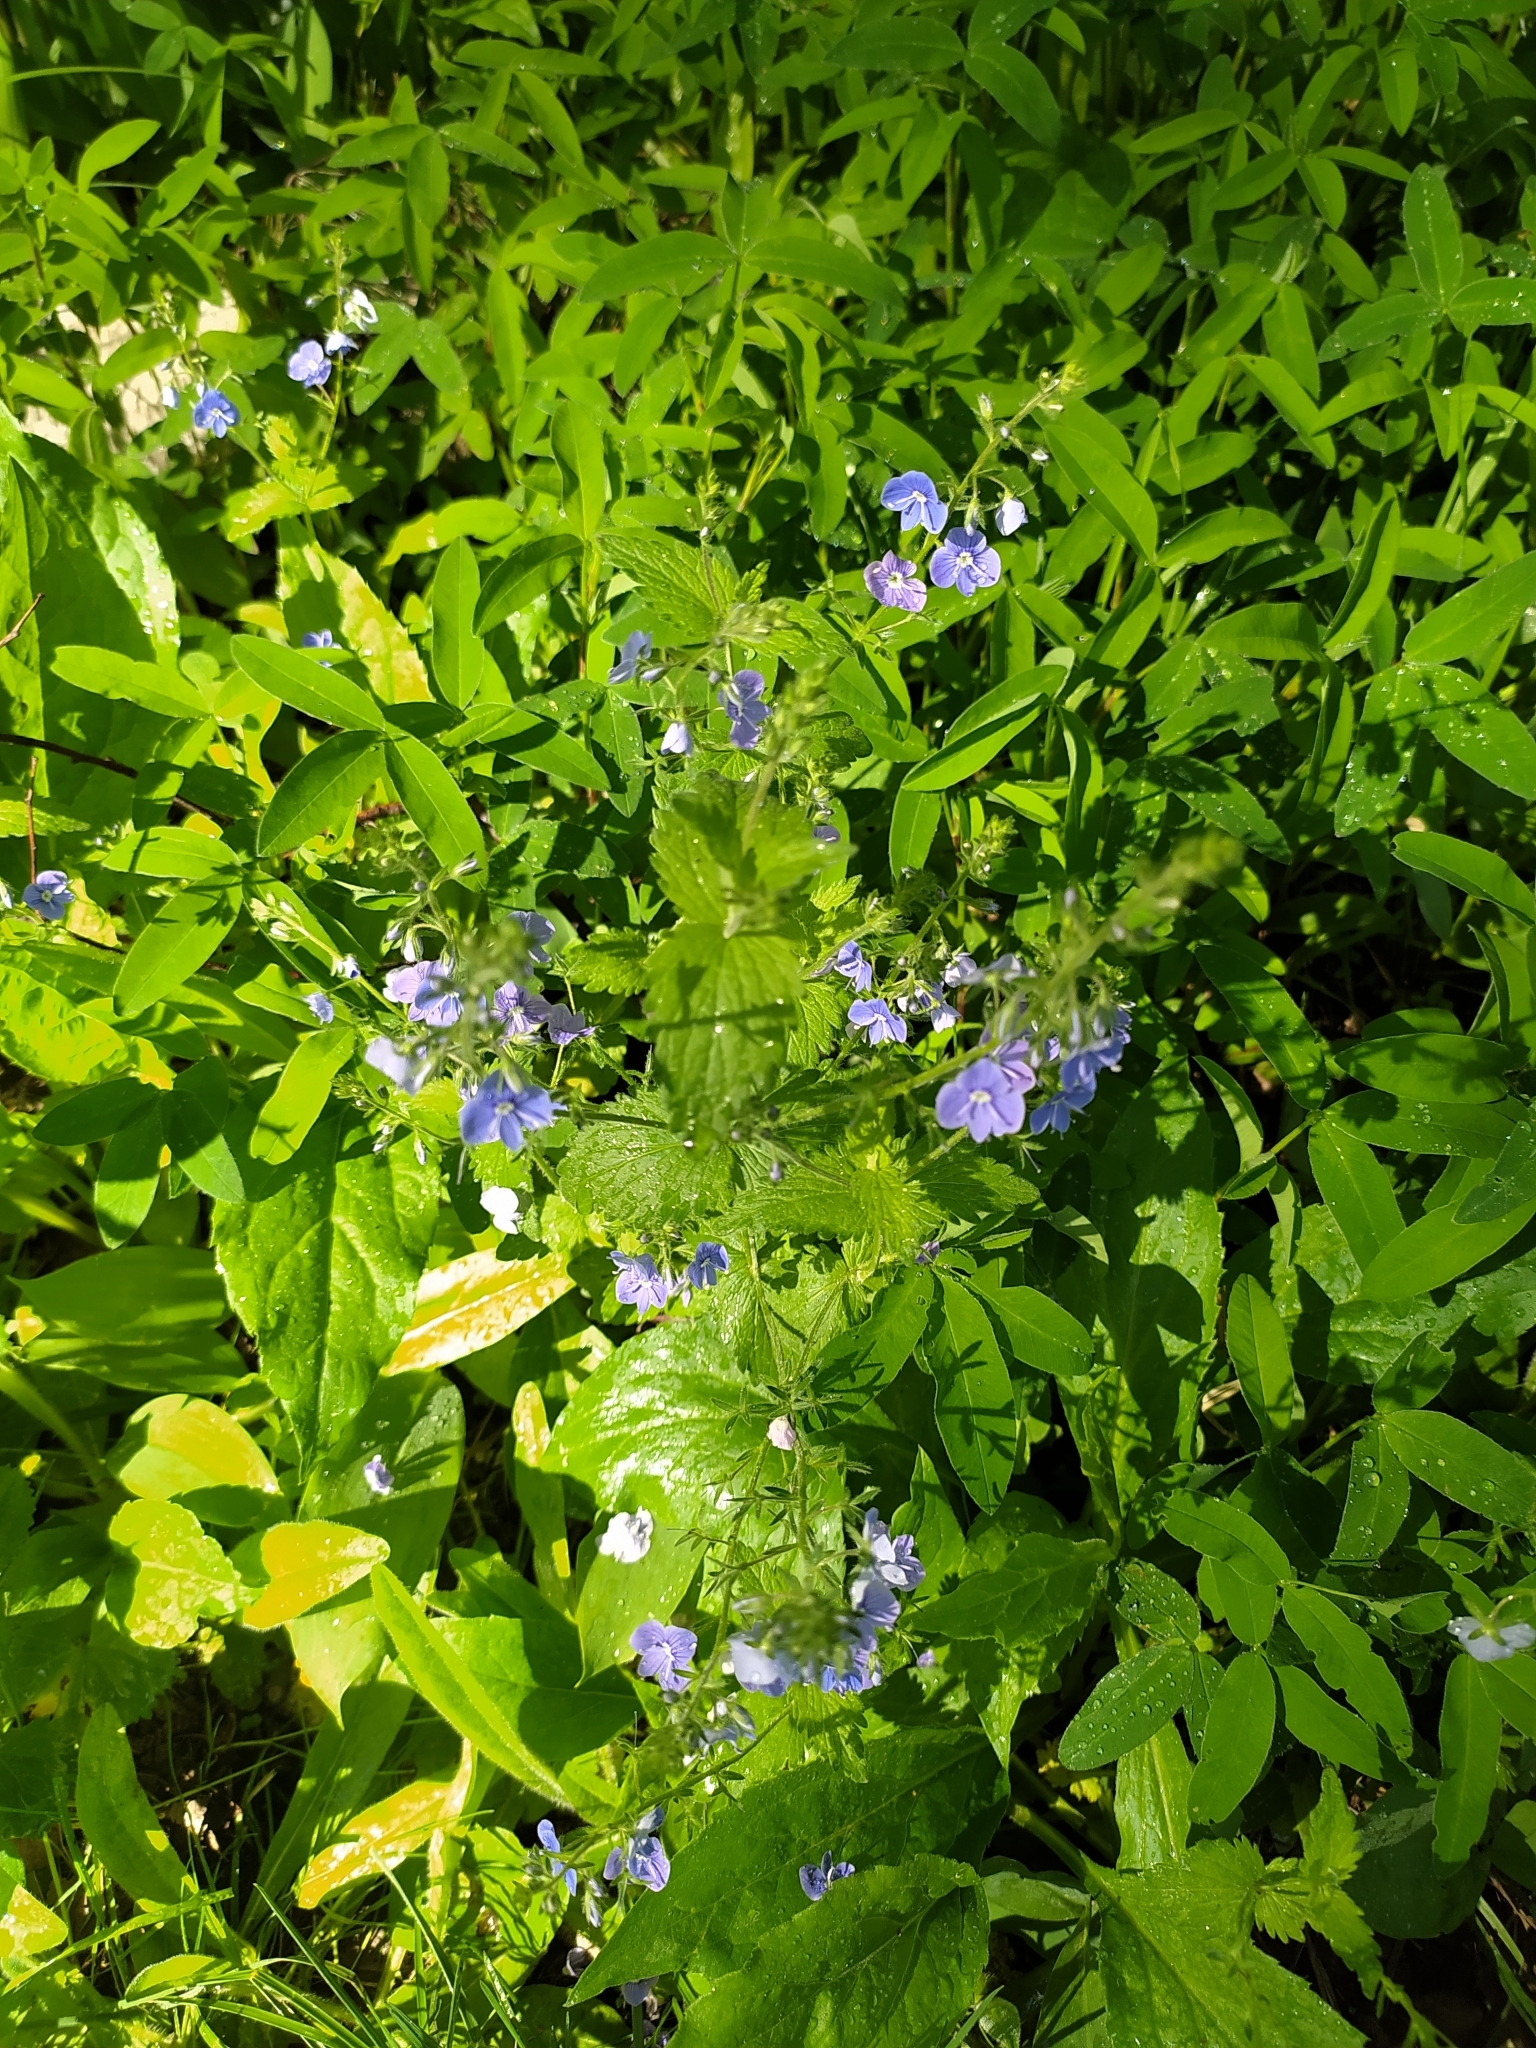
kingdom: Plantae
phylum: Tracheophyta
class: Magnoliopsida
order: Lamiales
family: Plantaginaceae
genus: Veronica
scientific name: Veronica chamaedrys
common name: Germander speedwell
